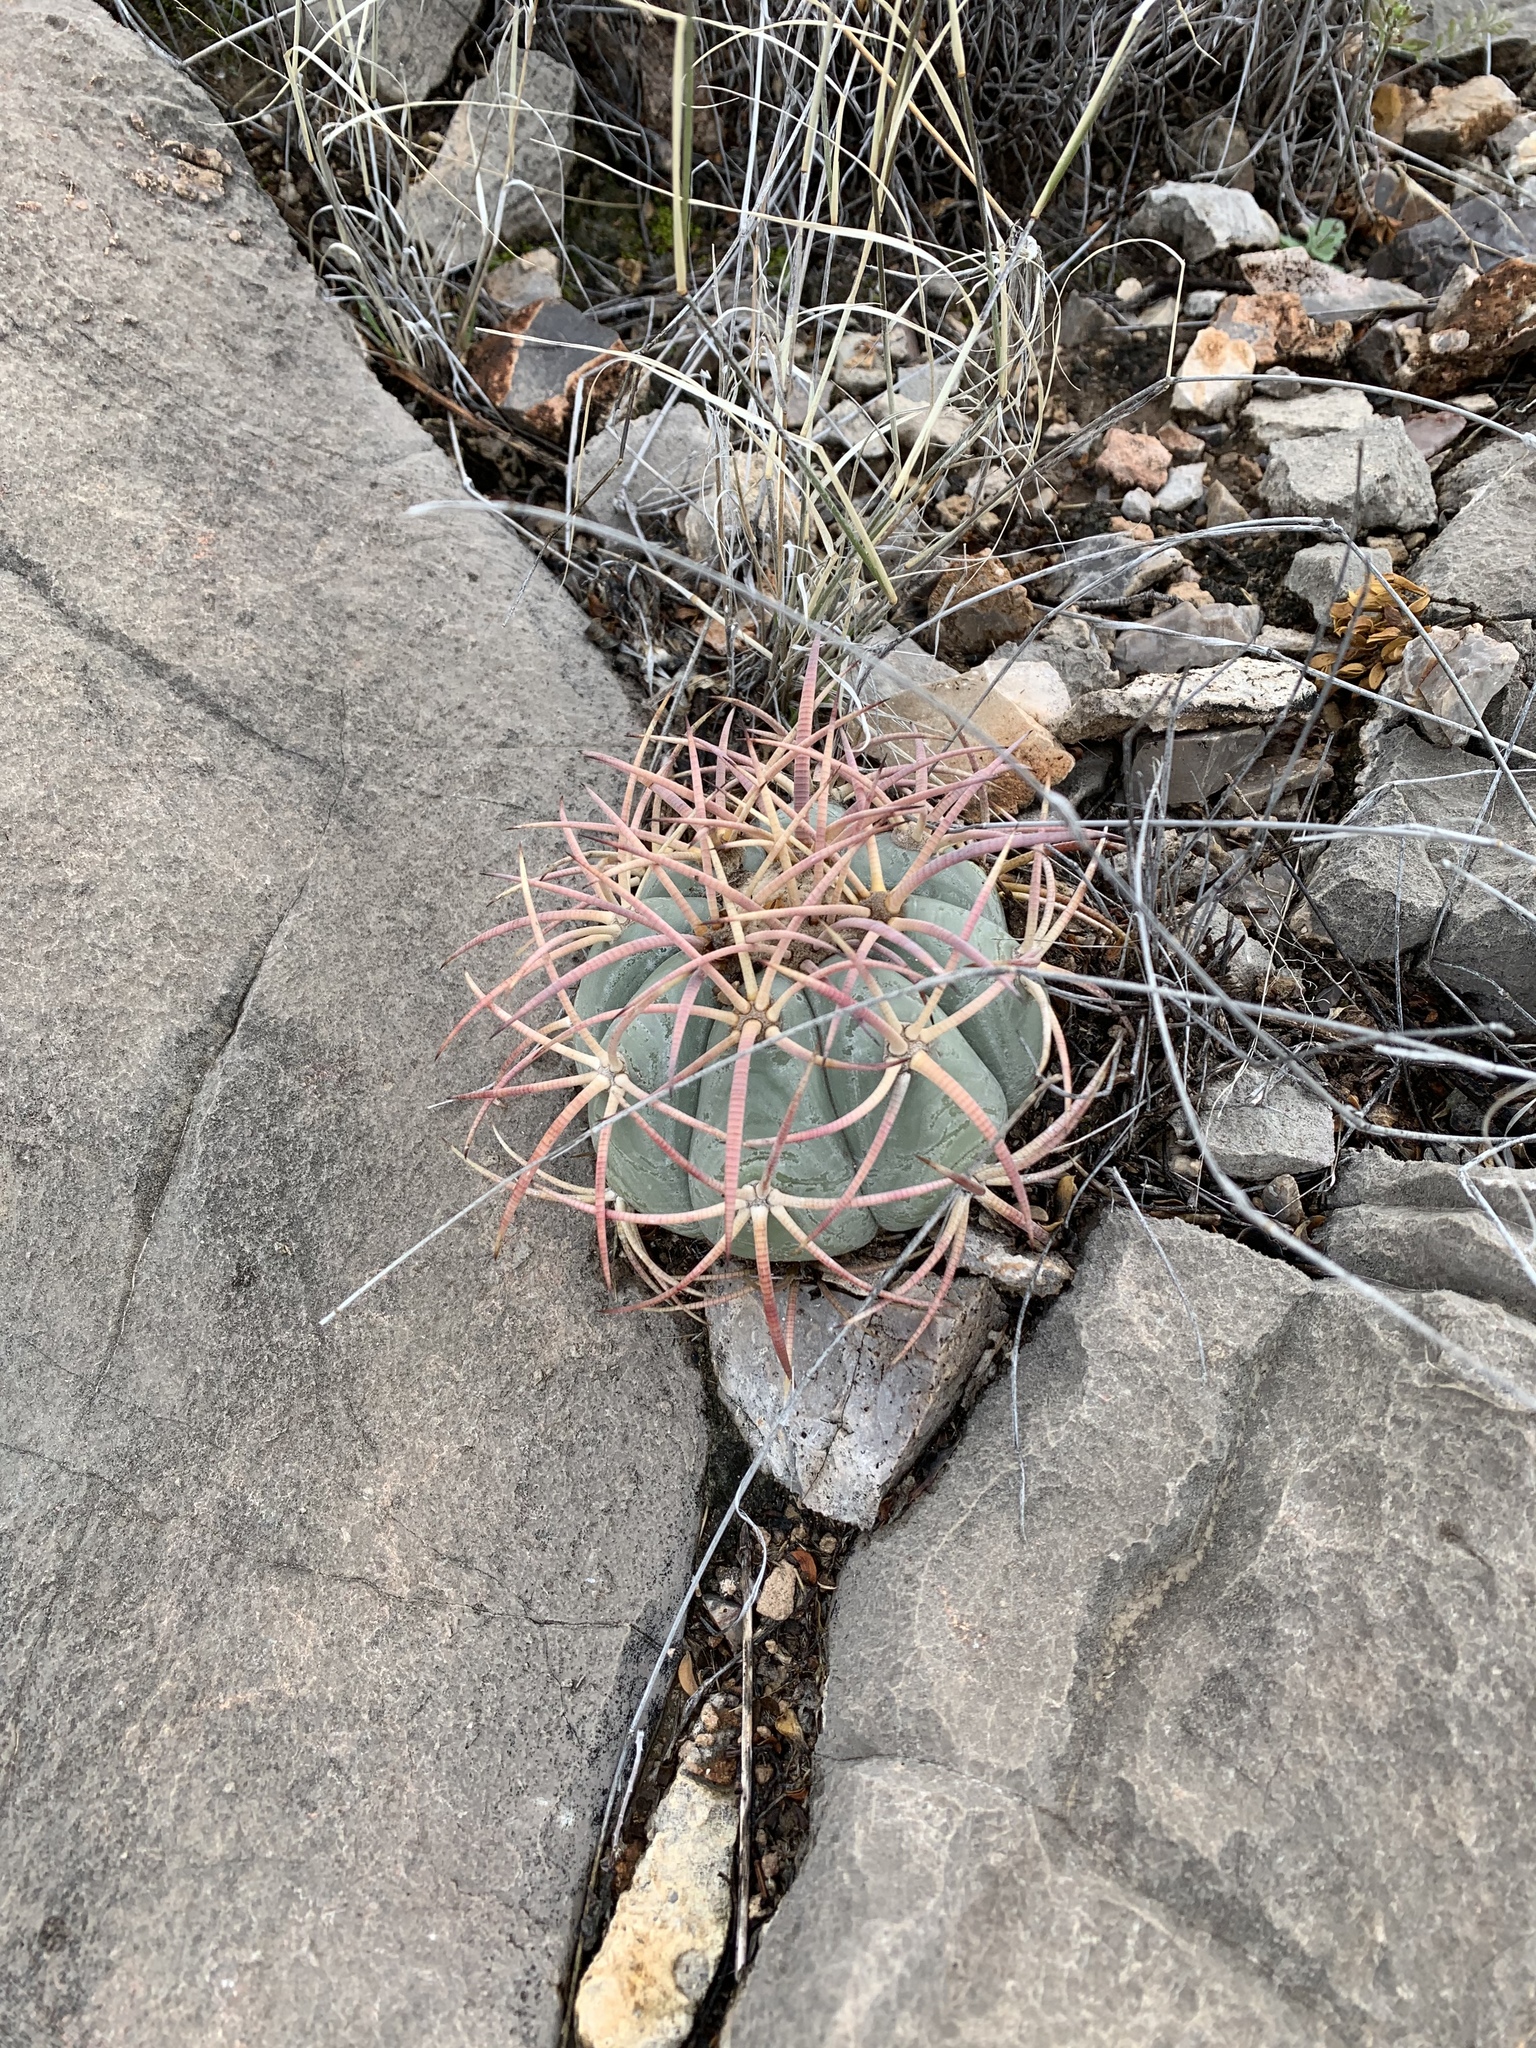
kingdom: Plantae
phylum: Tracheophyta
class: Magnoliopsida
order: Caryophyllales
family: Cactaceae
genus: Echinocactus
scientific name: Echinocactus horizonthalonius
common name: Devilshead
